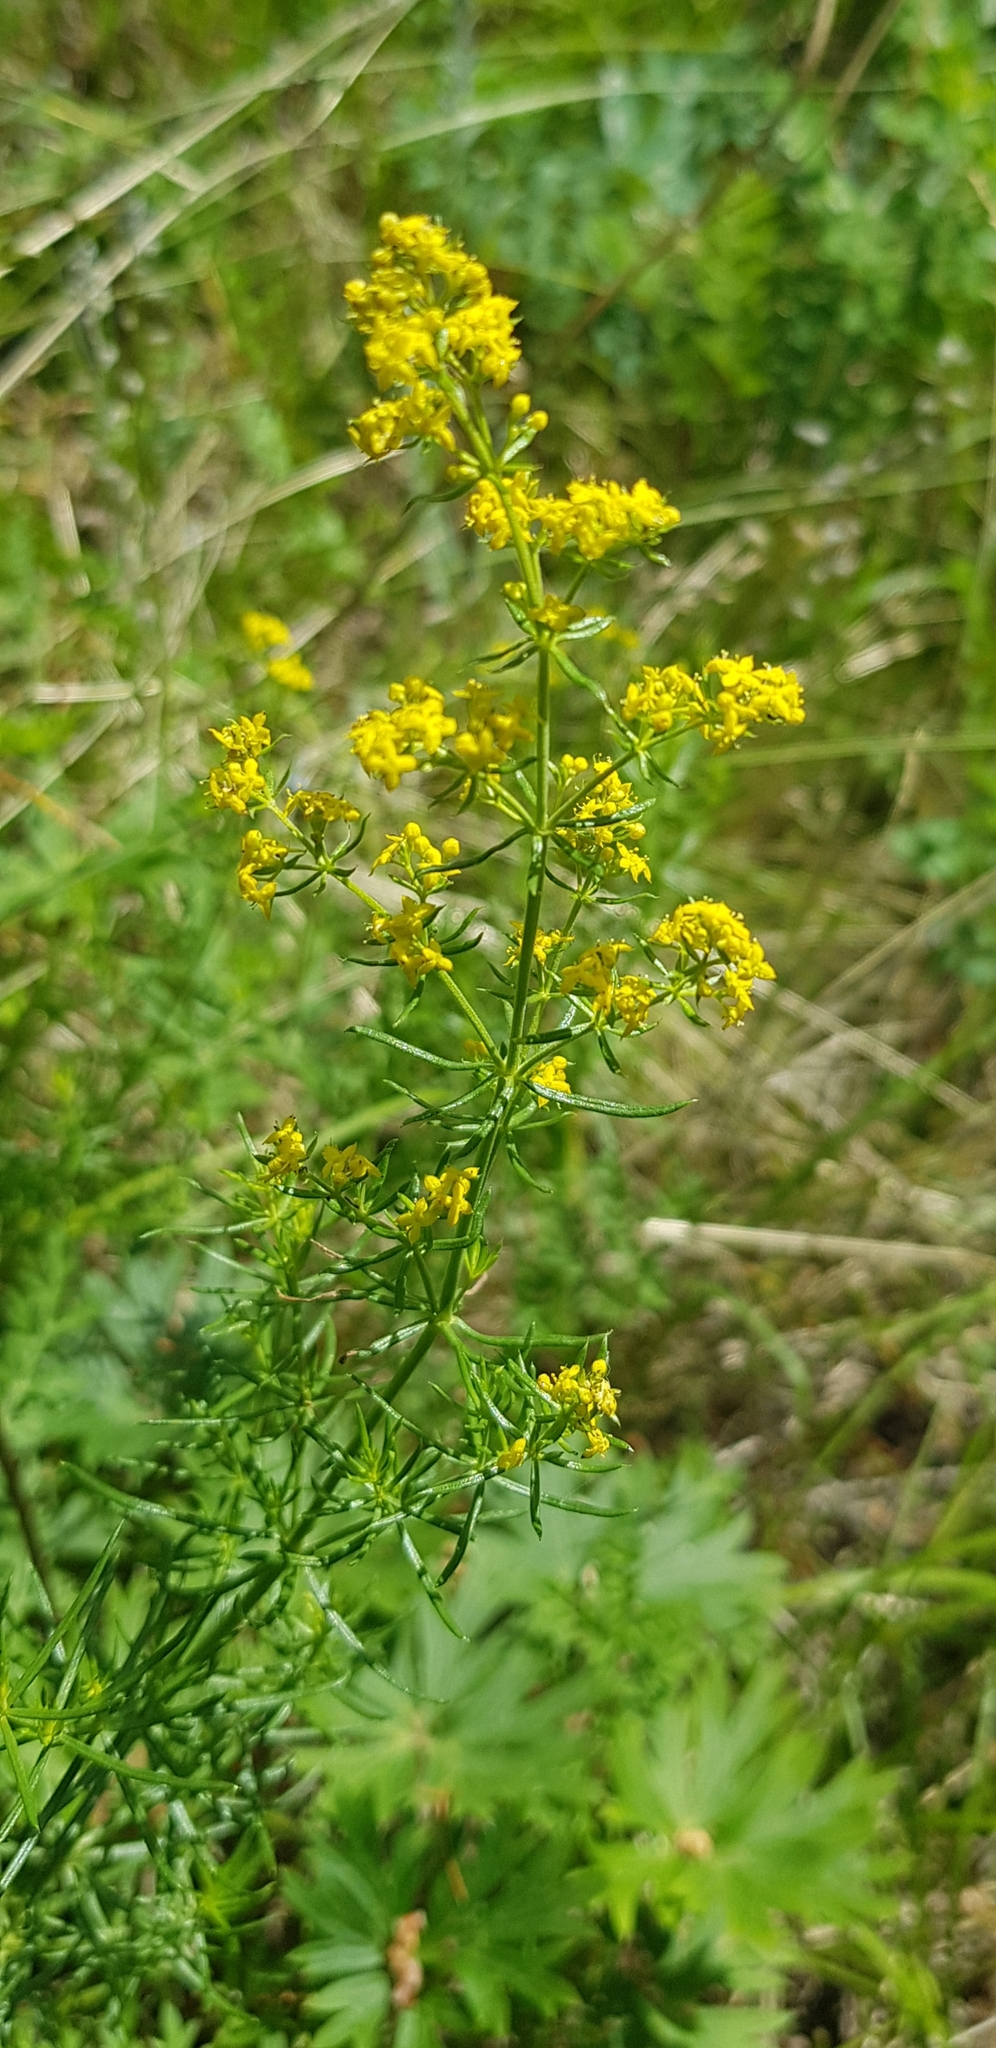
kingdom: Plantae
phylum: Tracheophyta
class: Magnoliopsida
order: Gentianales
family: Rubiaceae
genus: Galium
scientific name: Galium verum
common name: Lady's bedstraw
